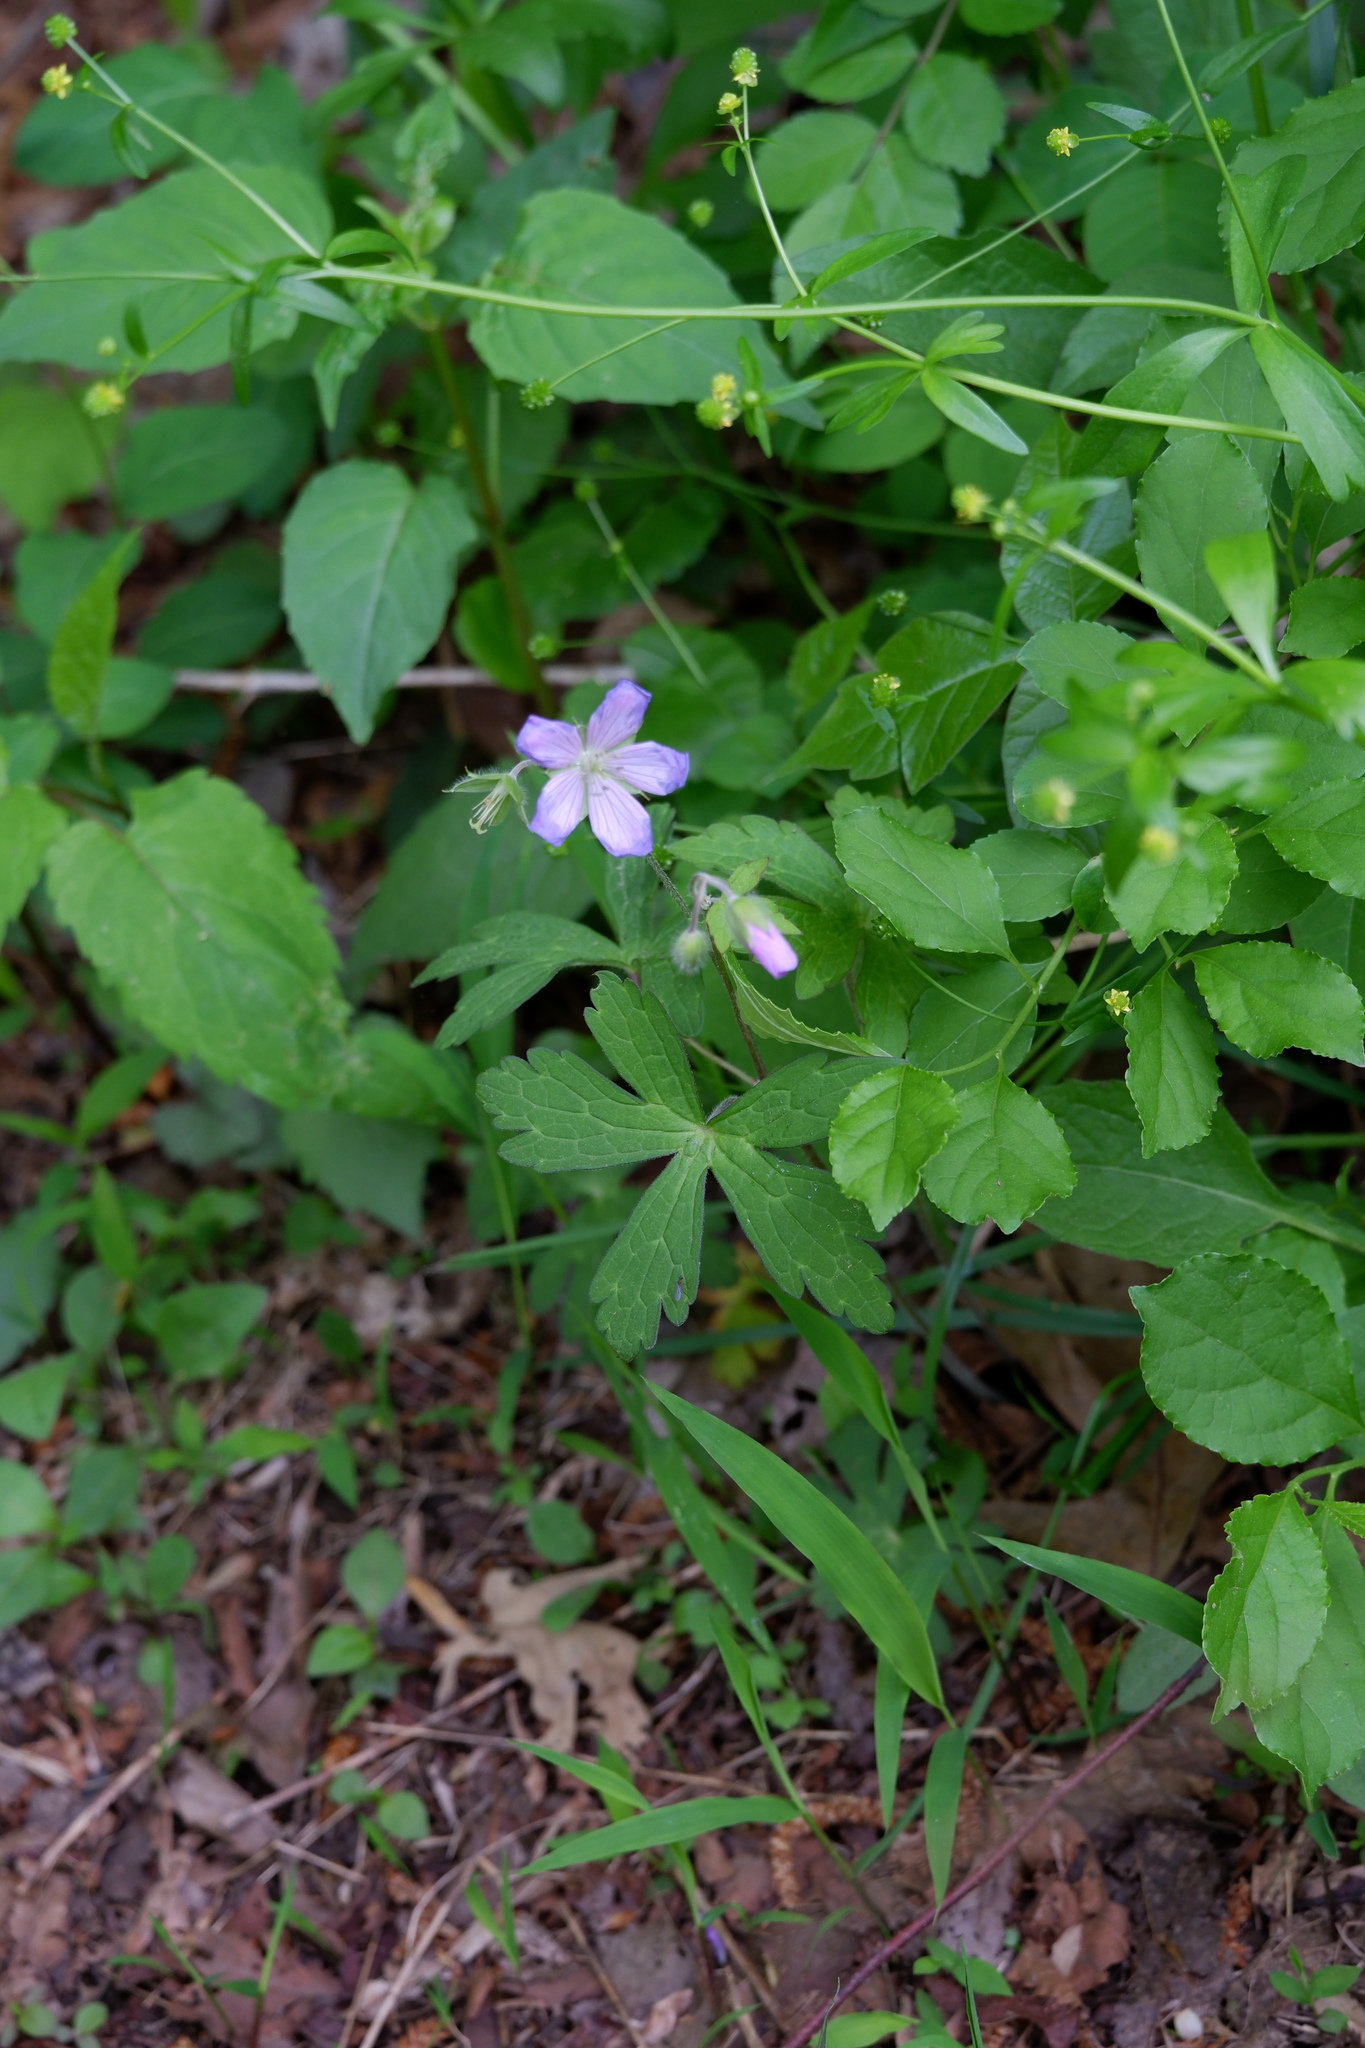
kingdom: Plantae
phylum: Tracheophyta
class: Magnoliopsida
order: Geraniales
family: Geraniaceae
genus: Geranium
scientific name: Geranium maculatum
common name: Spotted geranium
